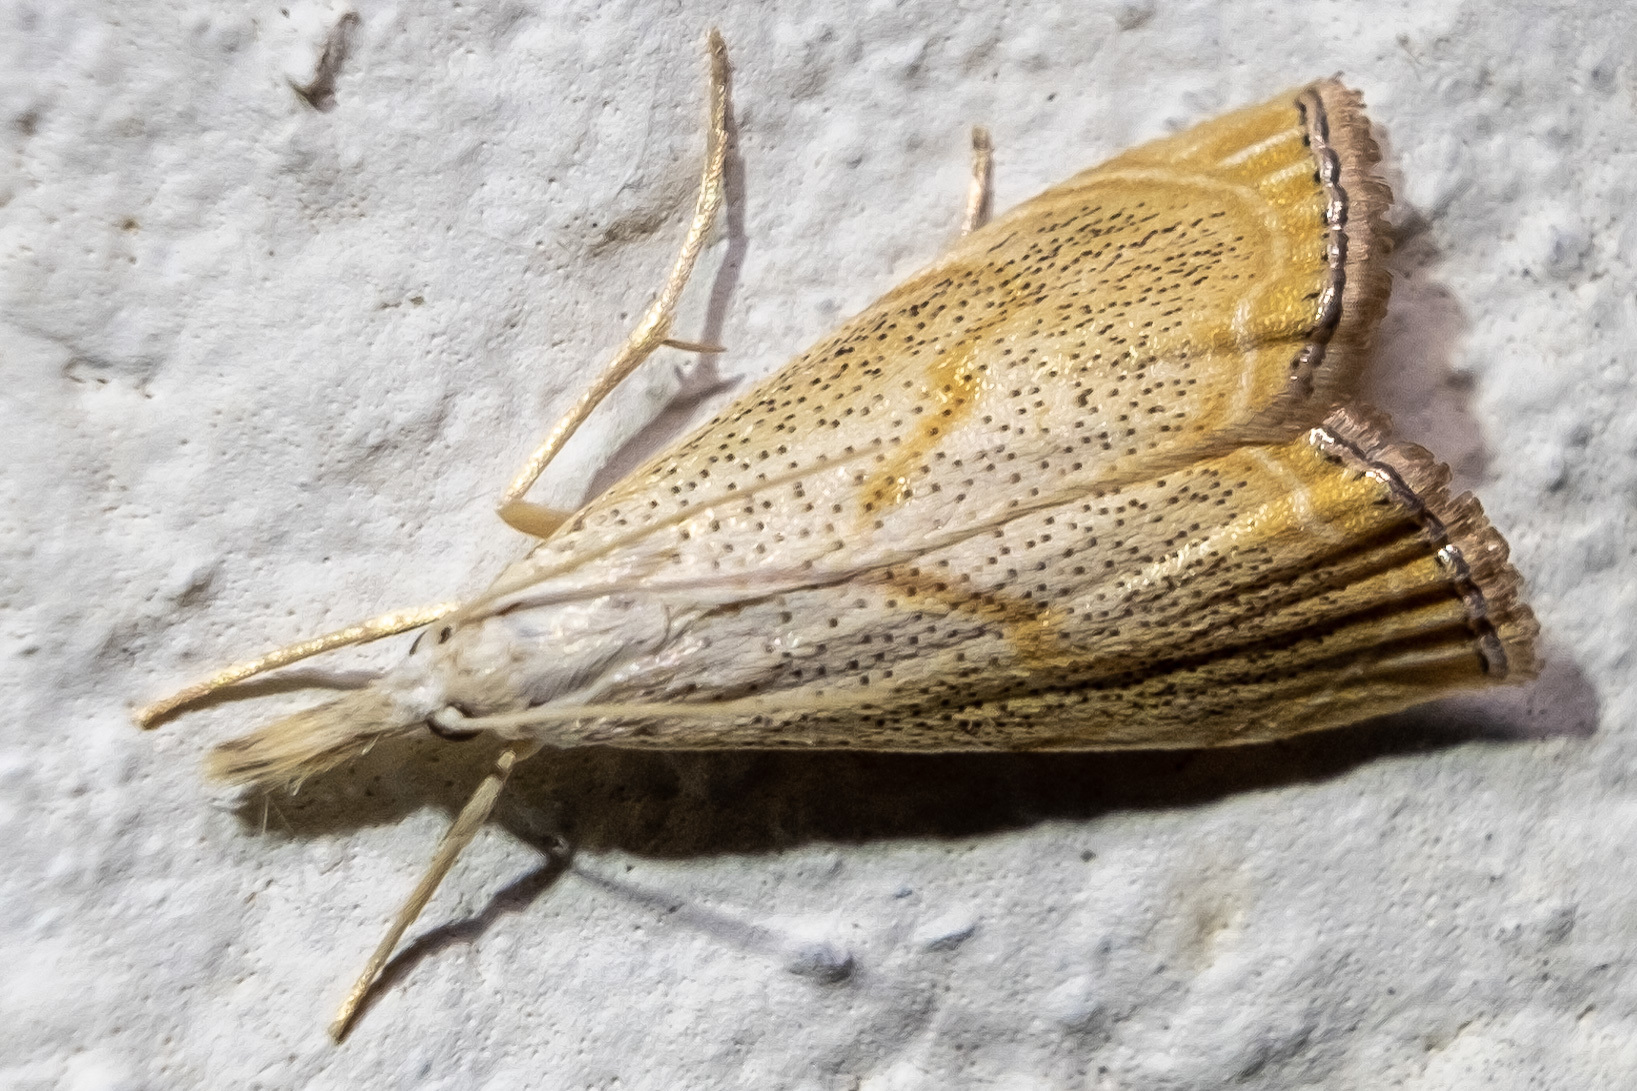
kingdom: Animalia
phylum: Arthropoda
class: Insecta
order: Lepidoptera
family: Crambidae
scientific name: Crambidae
